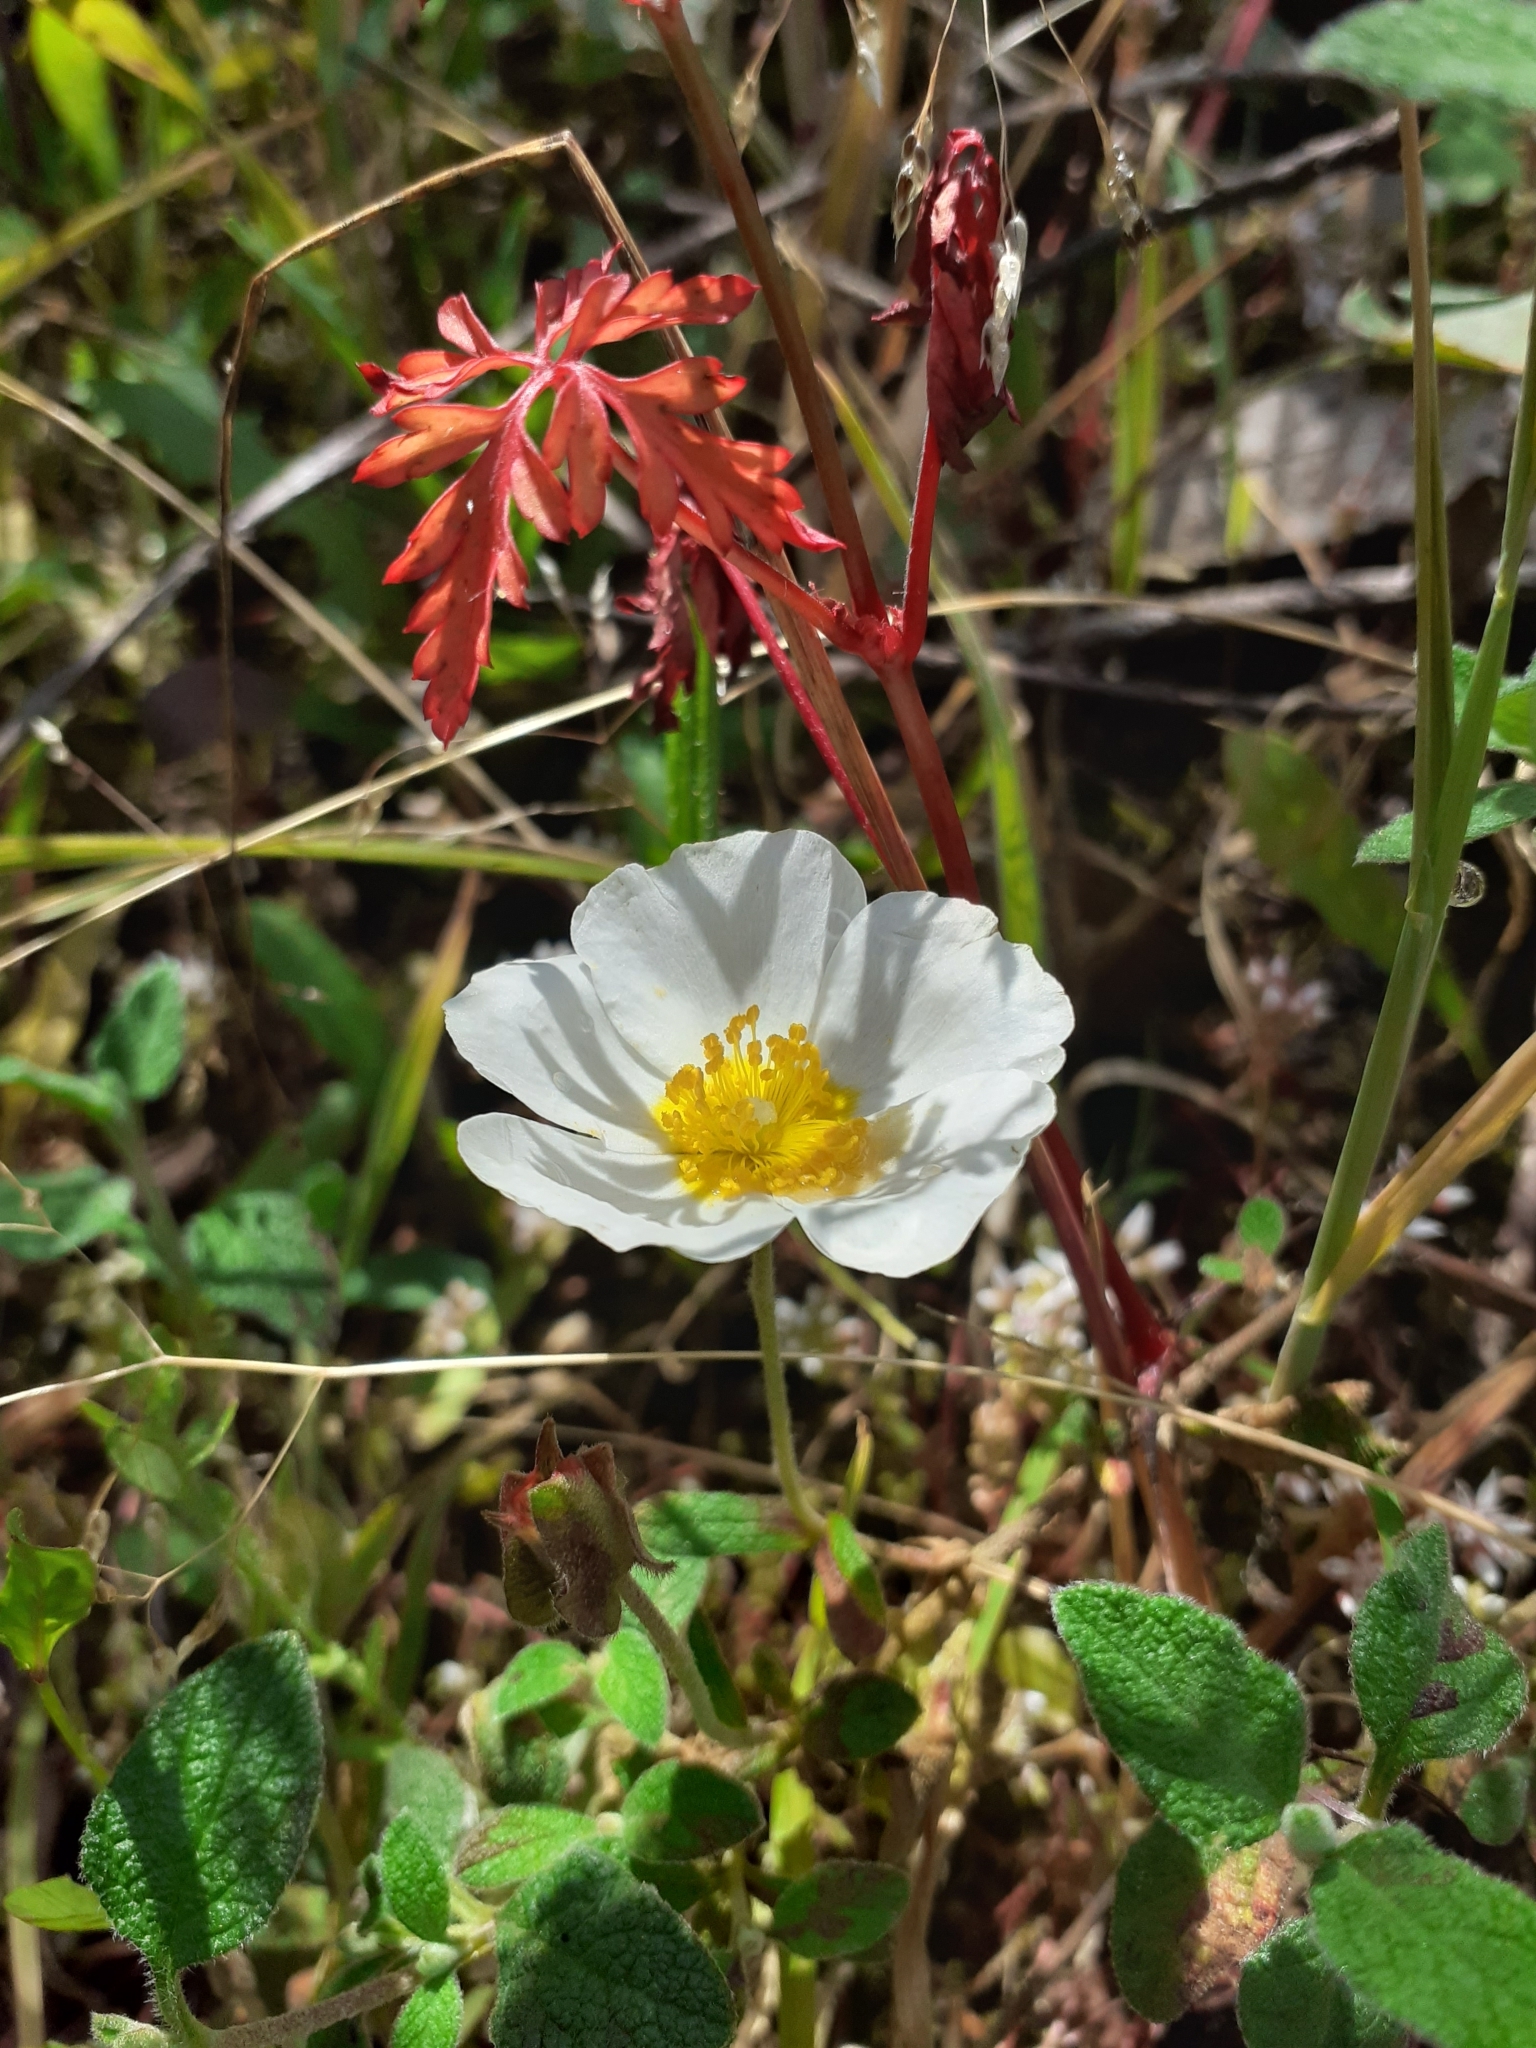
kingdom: Plantae
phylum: Tracheophyta
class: Magnoliopsida
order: Malvales
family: Cistaceae
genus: Cistus
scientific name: Cistus salviifolius
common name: Salvia cistus
